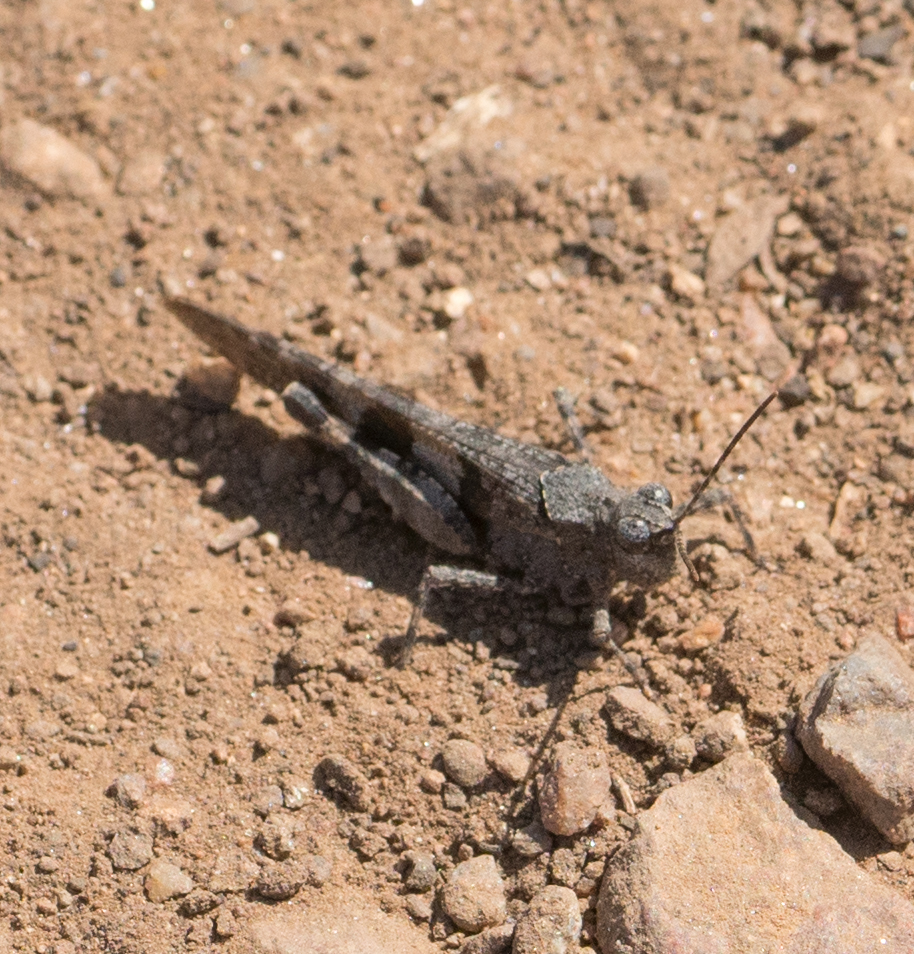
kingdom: Animalia
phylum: Arthropoda
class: Insecta
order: Orthoptera
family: Acrididae
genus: Trimerotropis
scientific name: Trimerotropis fontana
